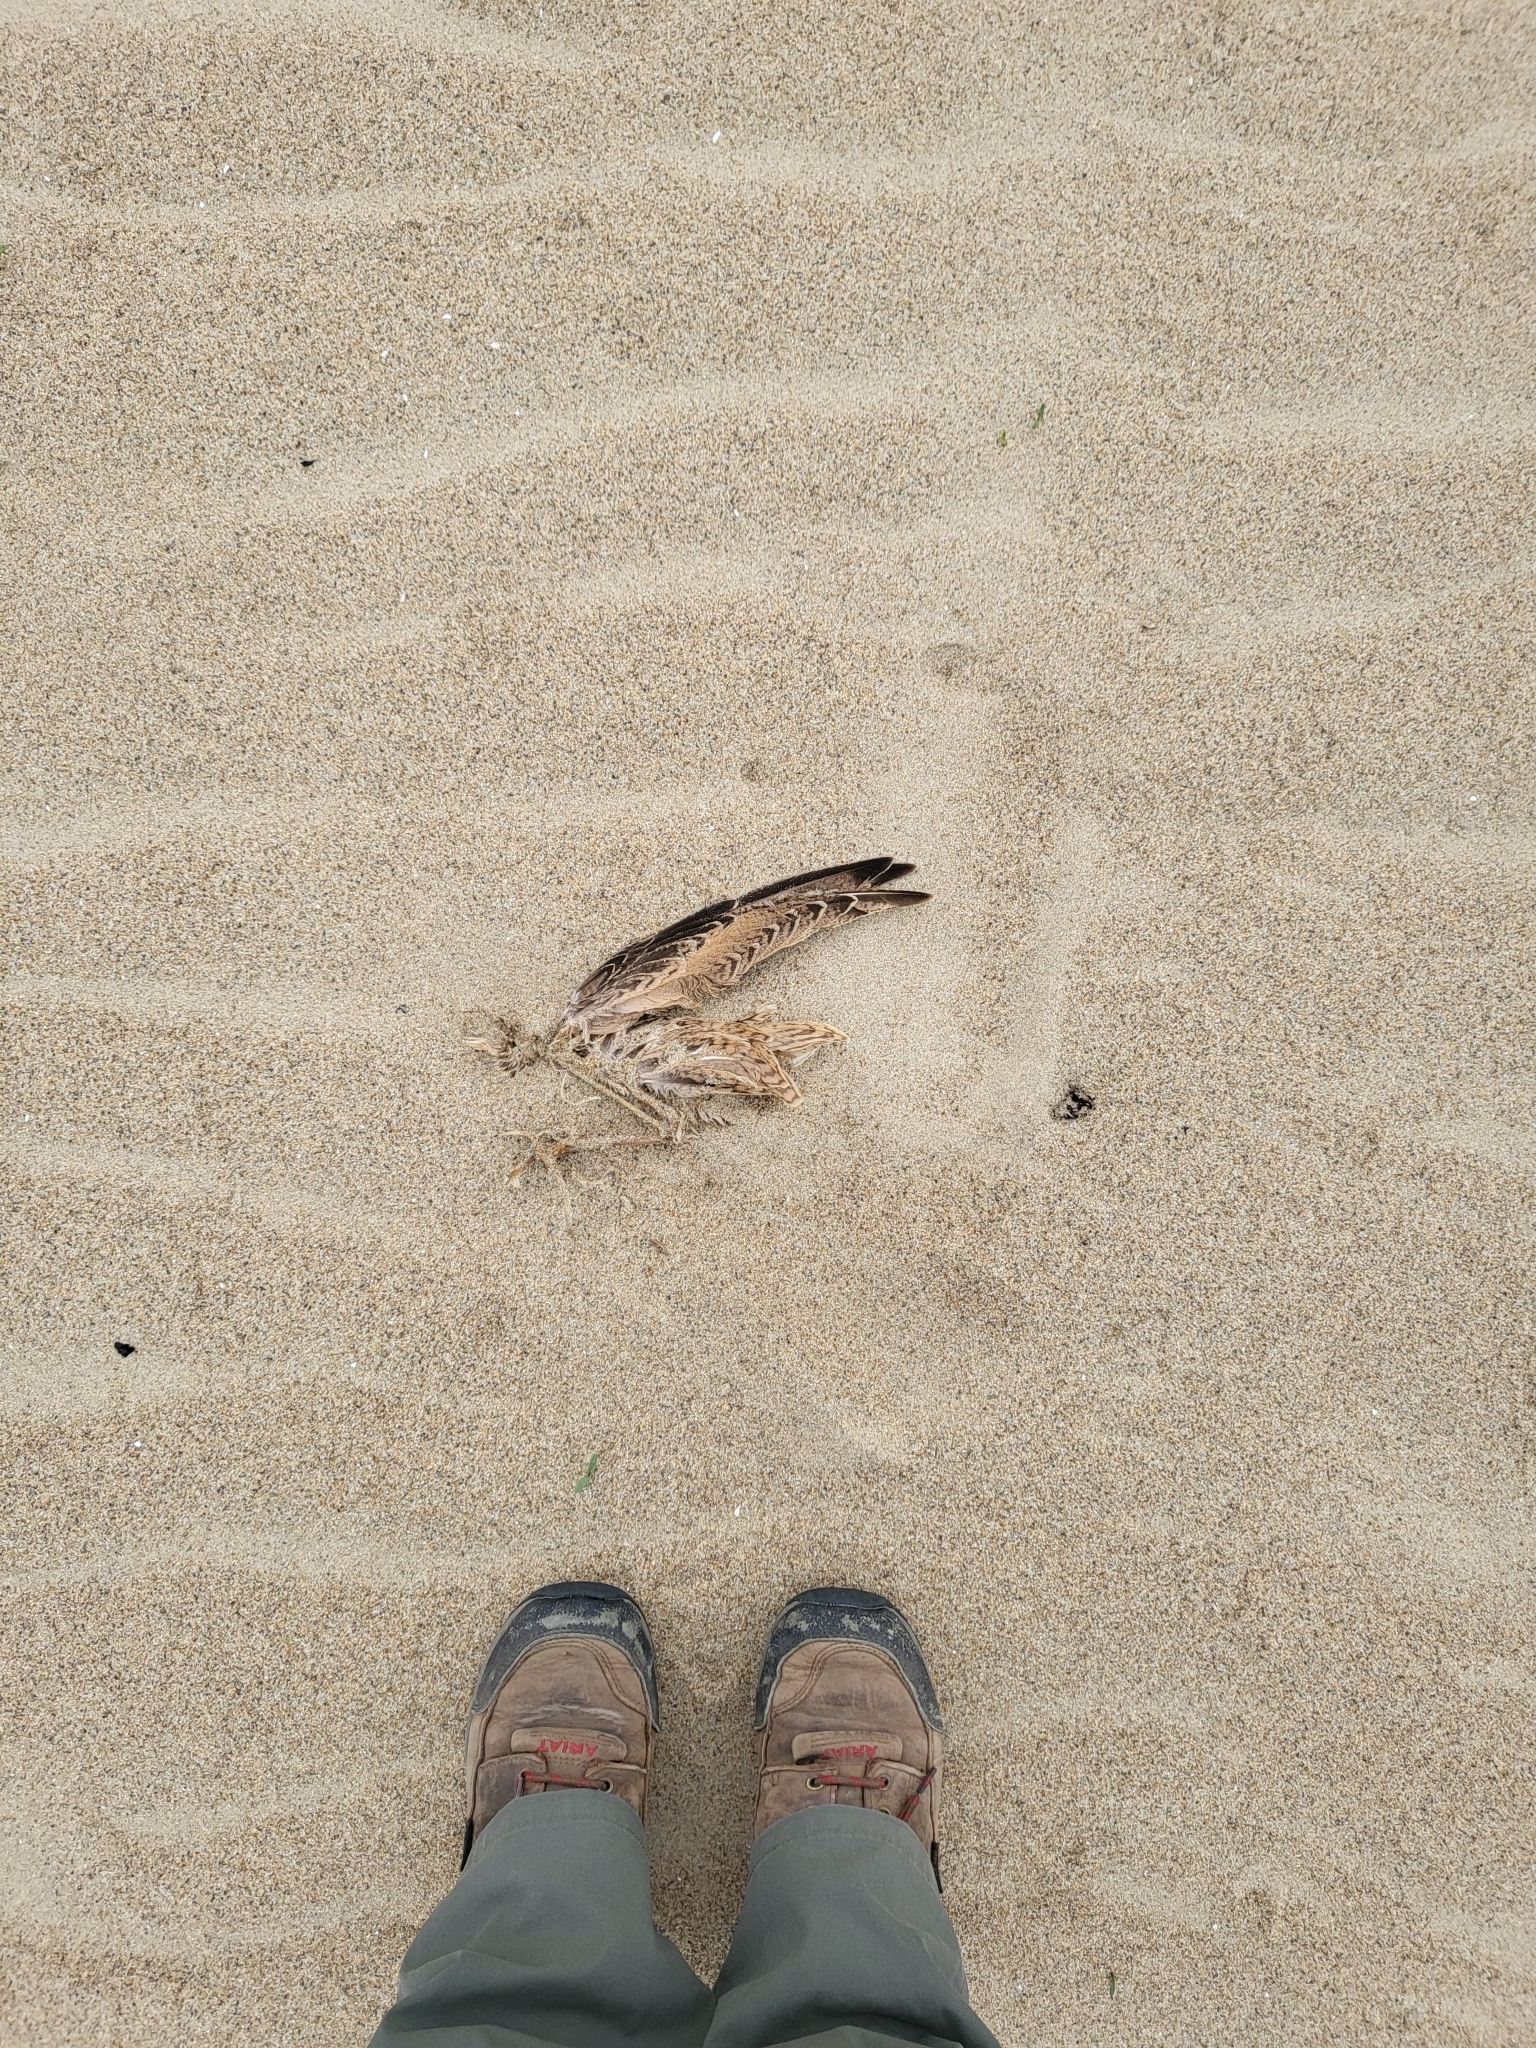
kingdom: Animalia
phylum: Chordata
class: Aves
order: Charadriiformes
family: Scolopacidae
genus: Limosa
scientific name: Limosa fedoa
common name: Marbled godwit
